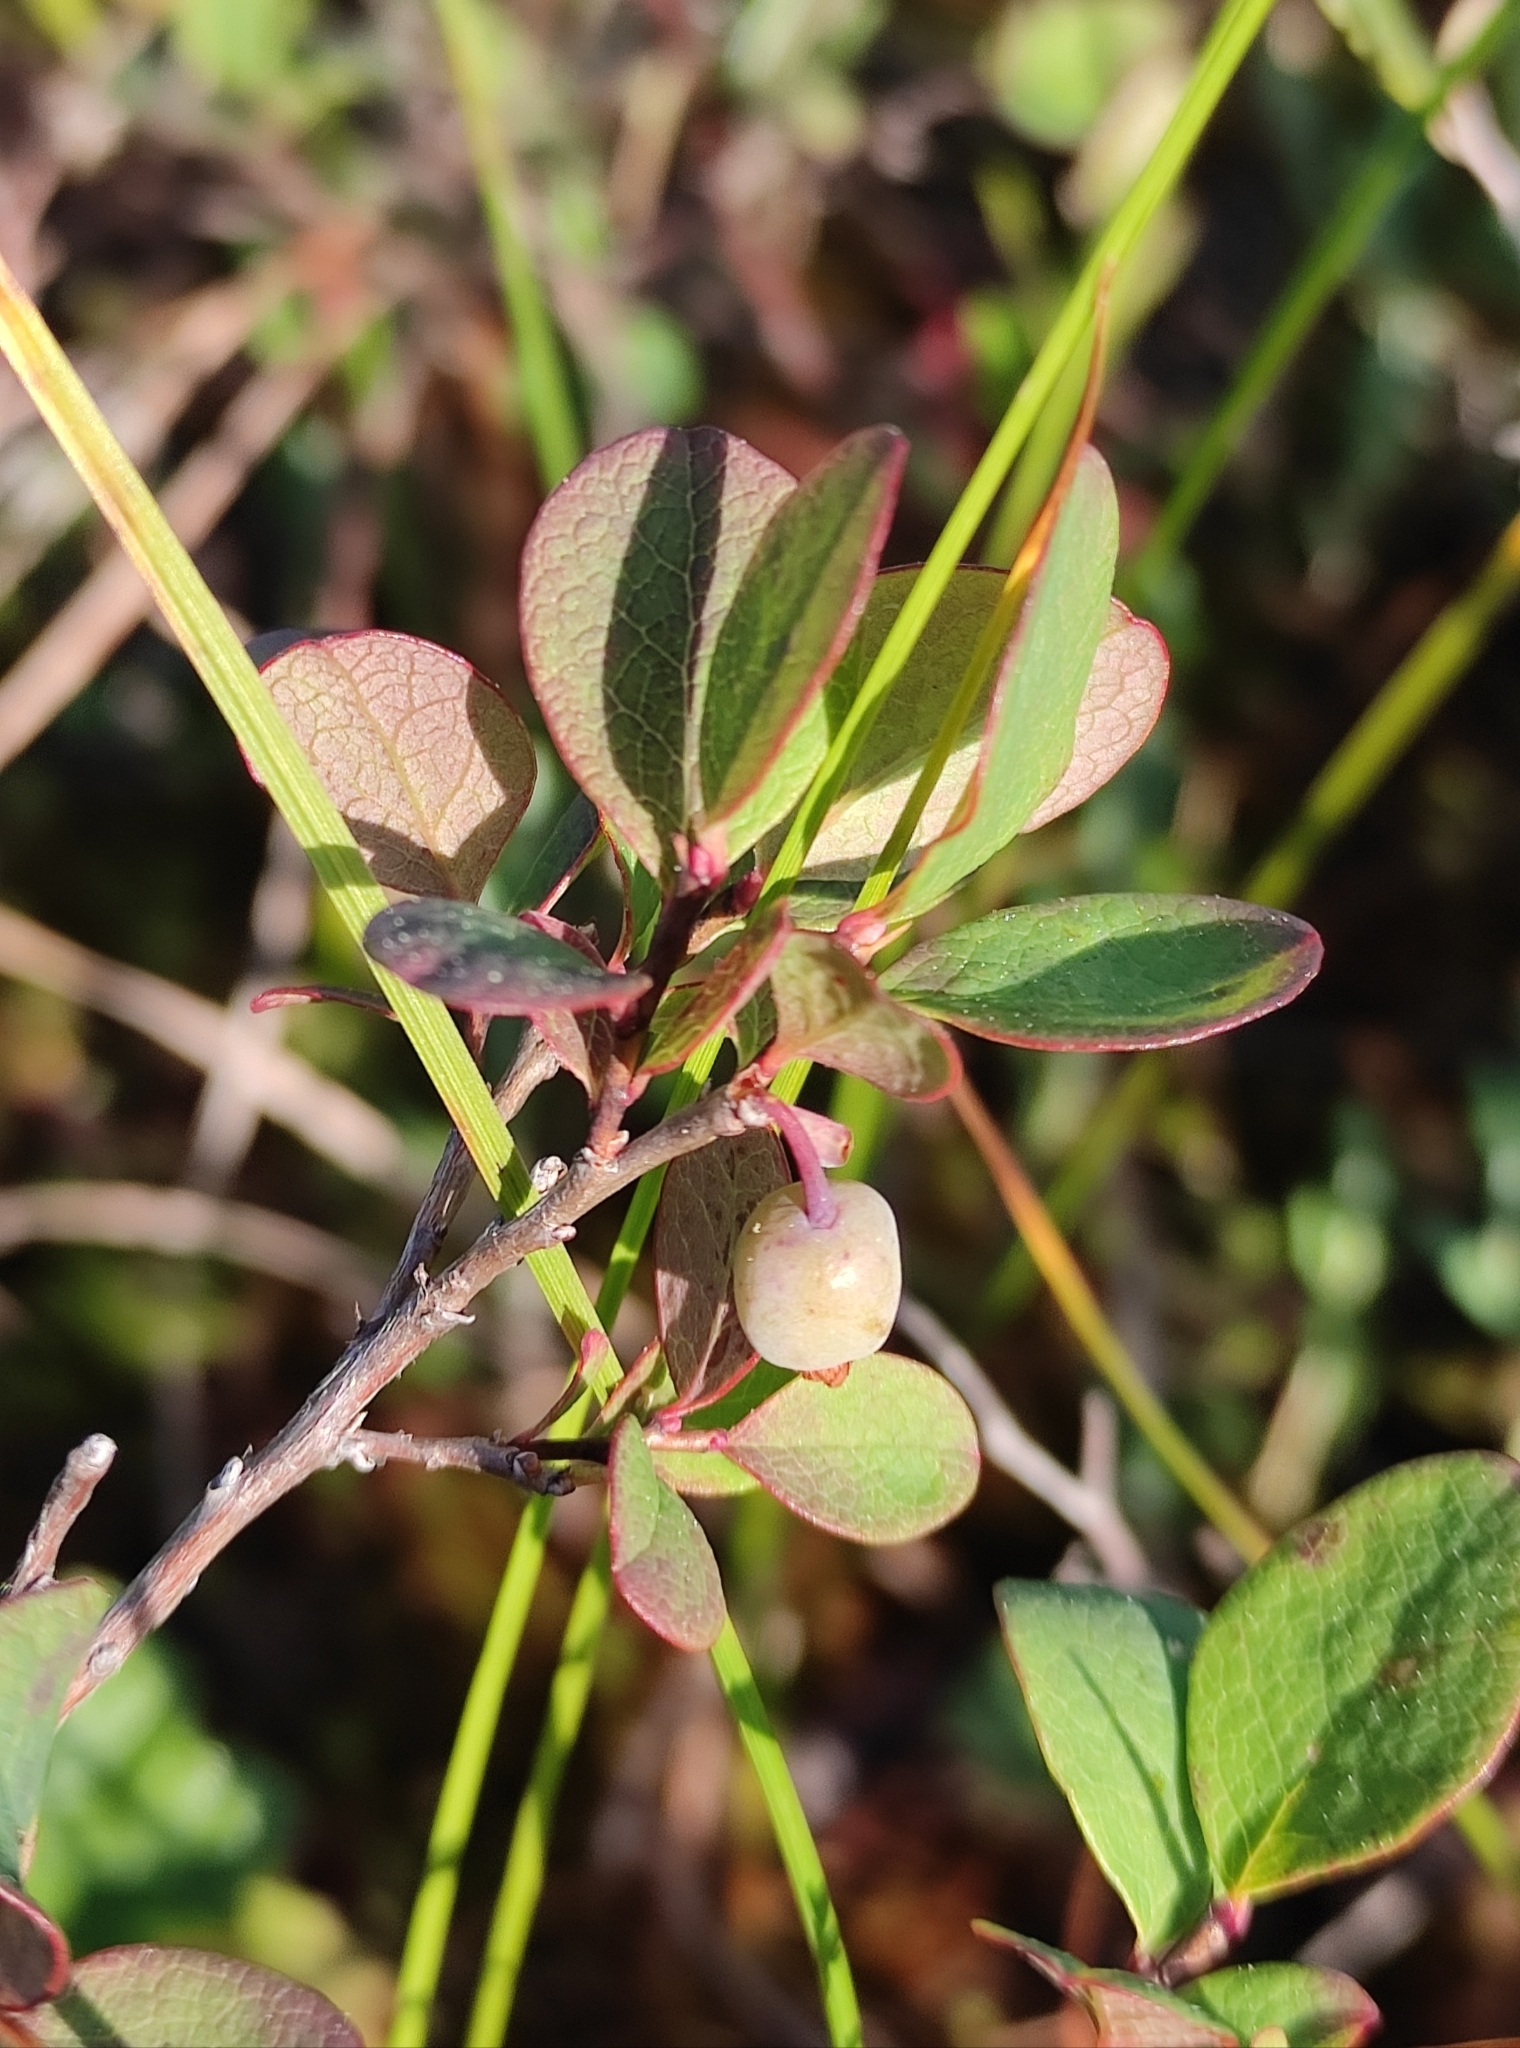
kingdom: Plantae
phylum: Tracheophyta
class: Magnoliopsida
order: Ericales
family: Ericaceae
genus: Vaccinium
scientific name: Vaccinium uliginosum
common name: Bog bilberry
